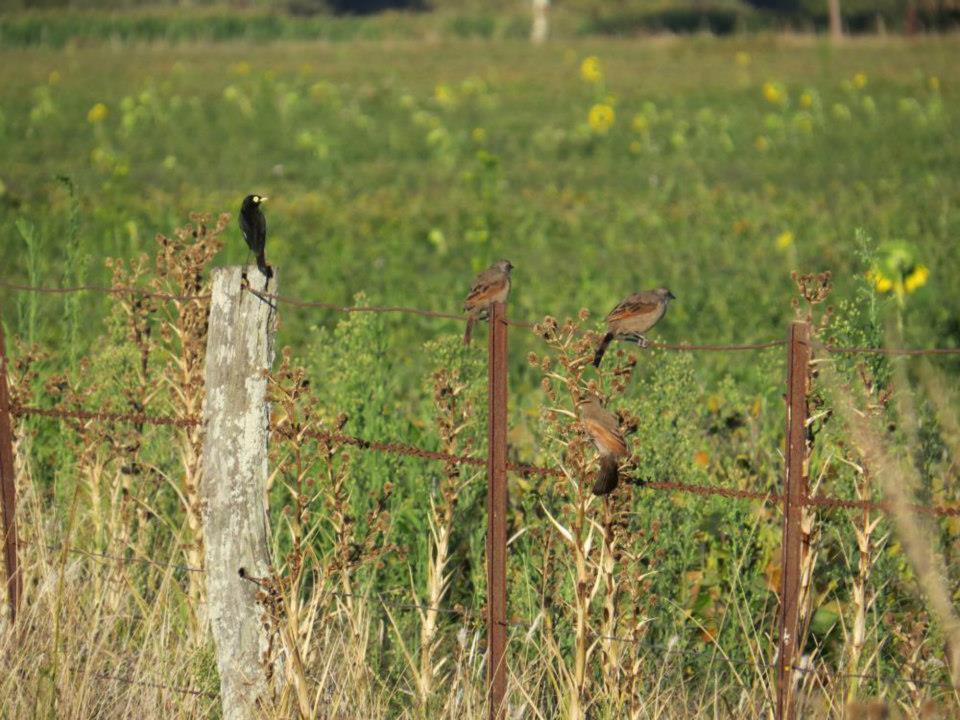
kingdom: Animalia
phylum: Chordata
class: Aves
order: Passeriformes
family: Icteridae
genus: Agelaioides
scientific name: Agelaioides badius
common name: Baywing
